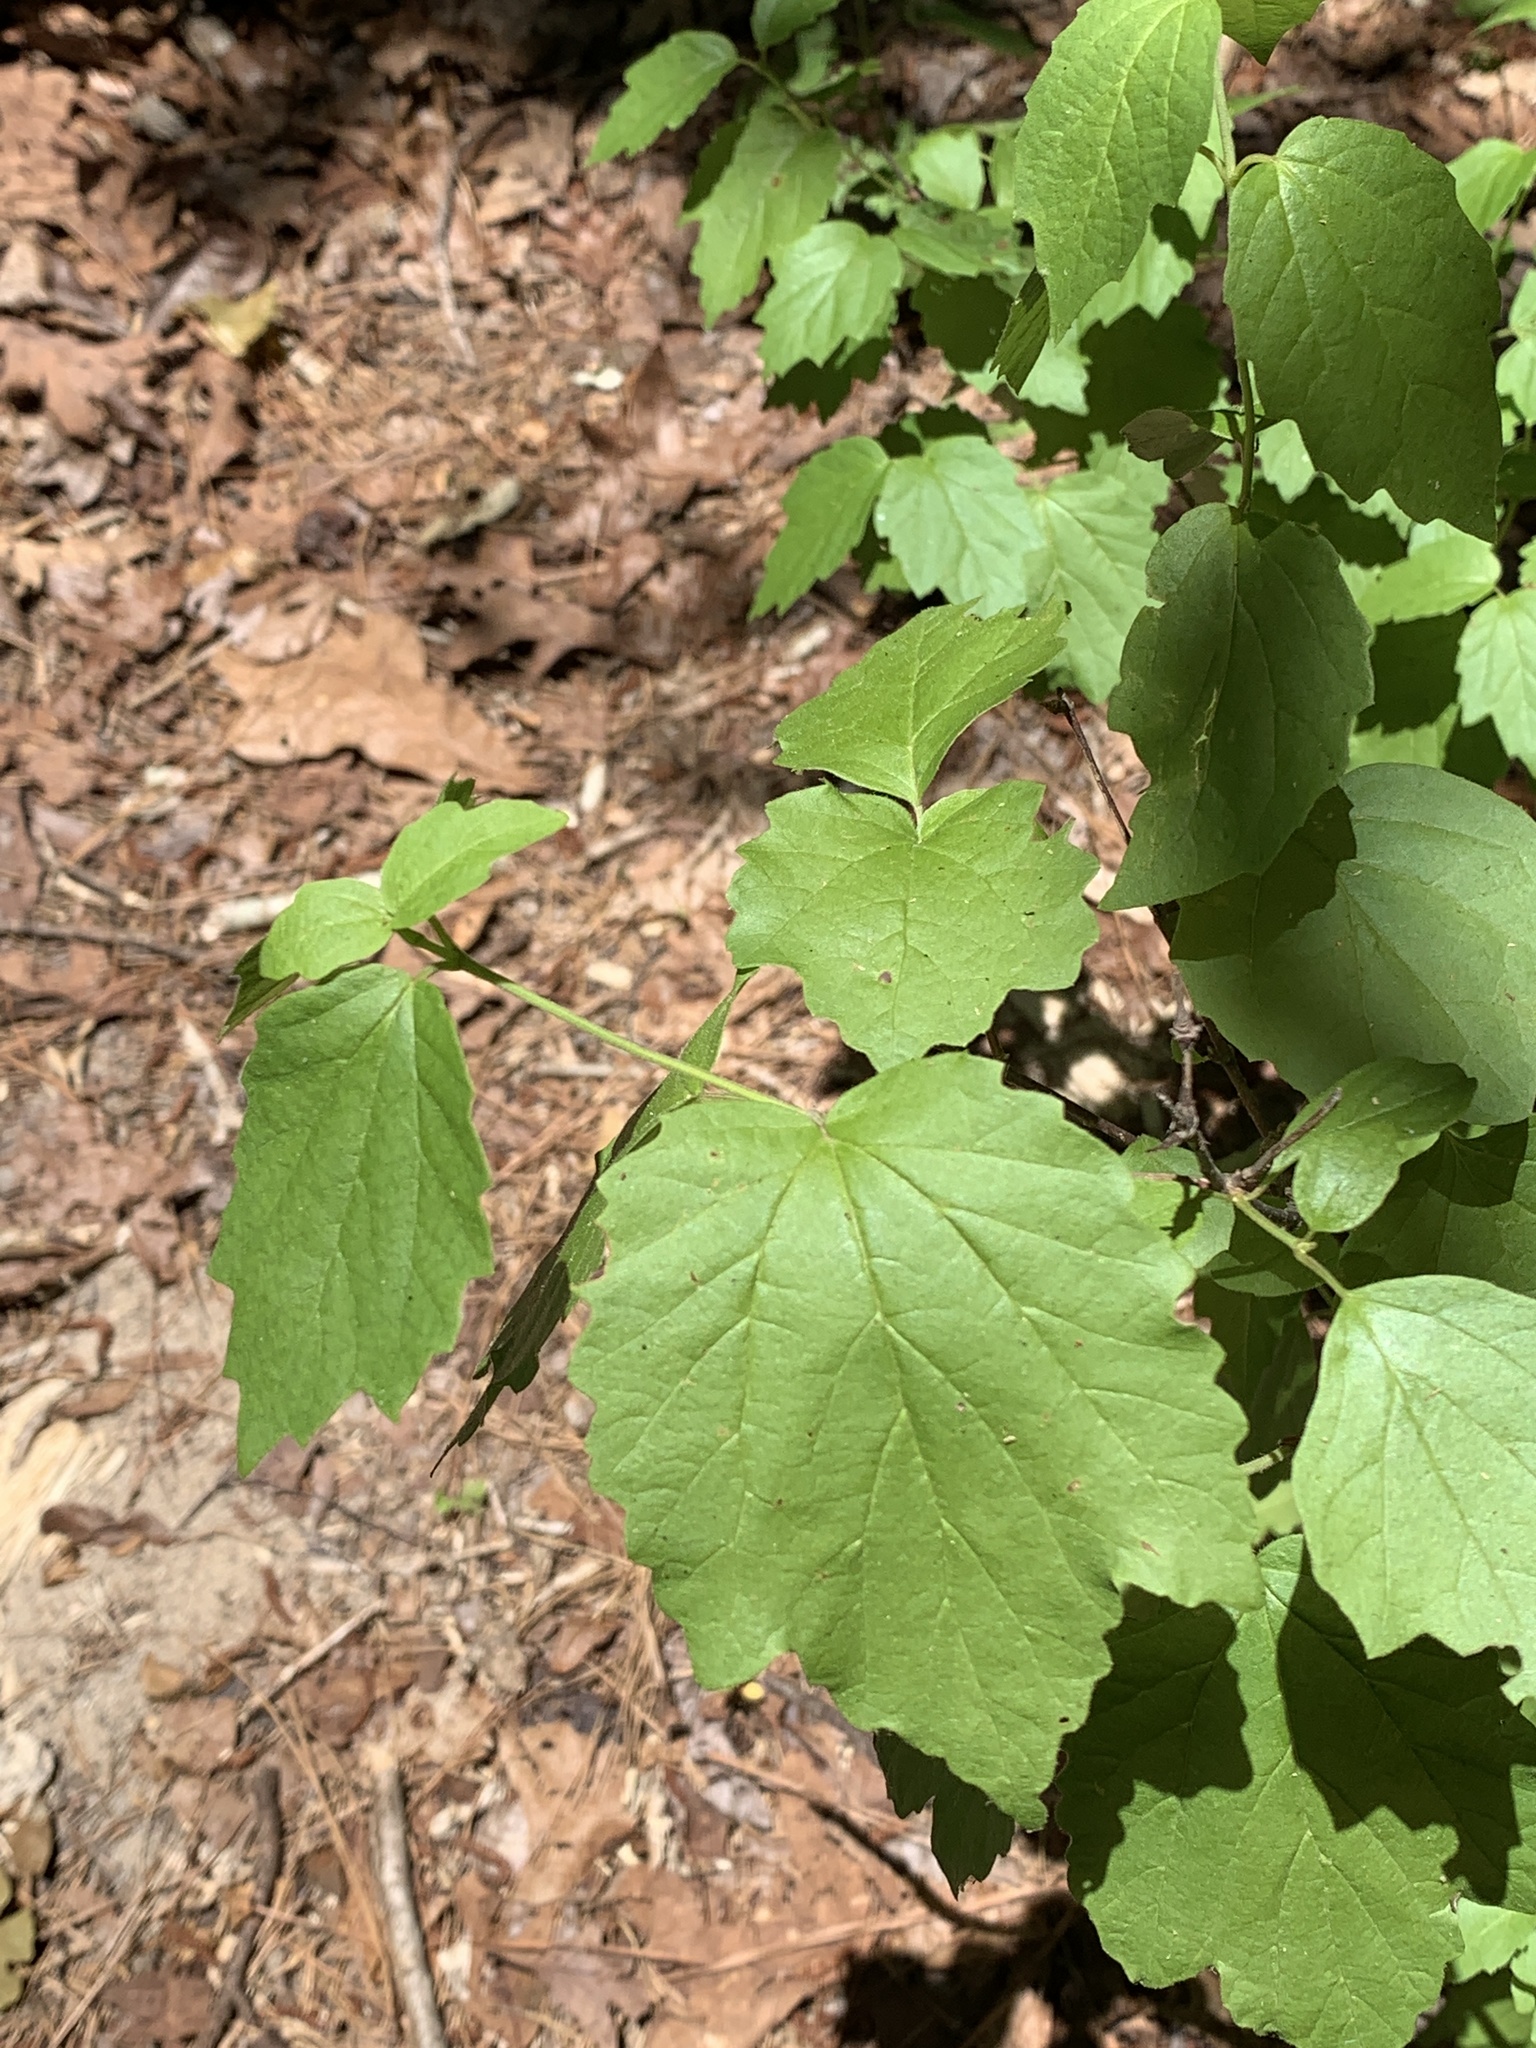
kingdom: Plantae
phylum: Tracheophyta
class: Magnoliopsida
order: Dipsacales
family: Viburnaceae
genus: Viburnum
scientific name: Viburnum acerifolium
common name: Dockmackie
